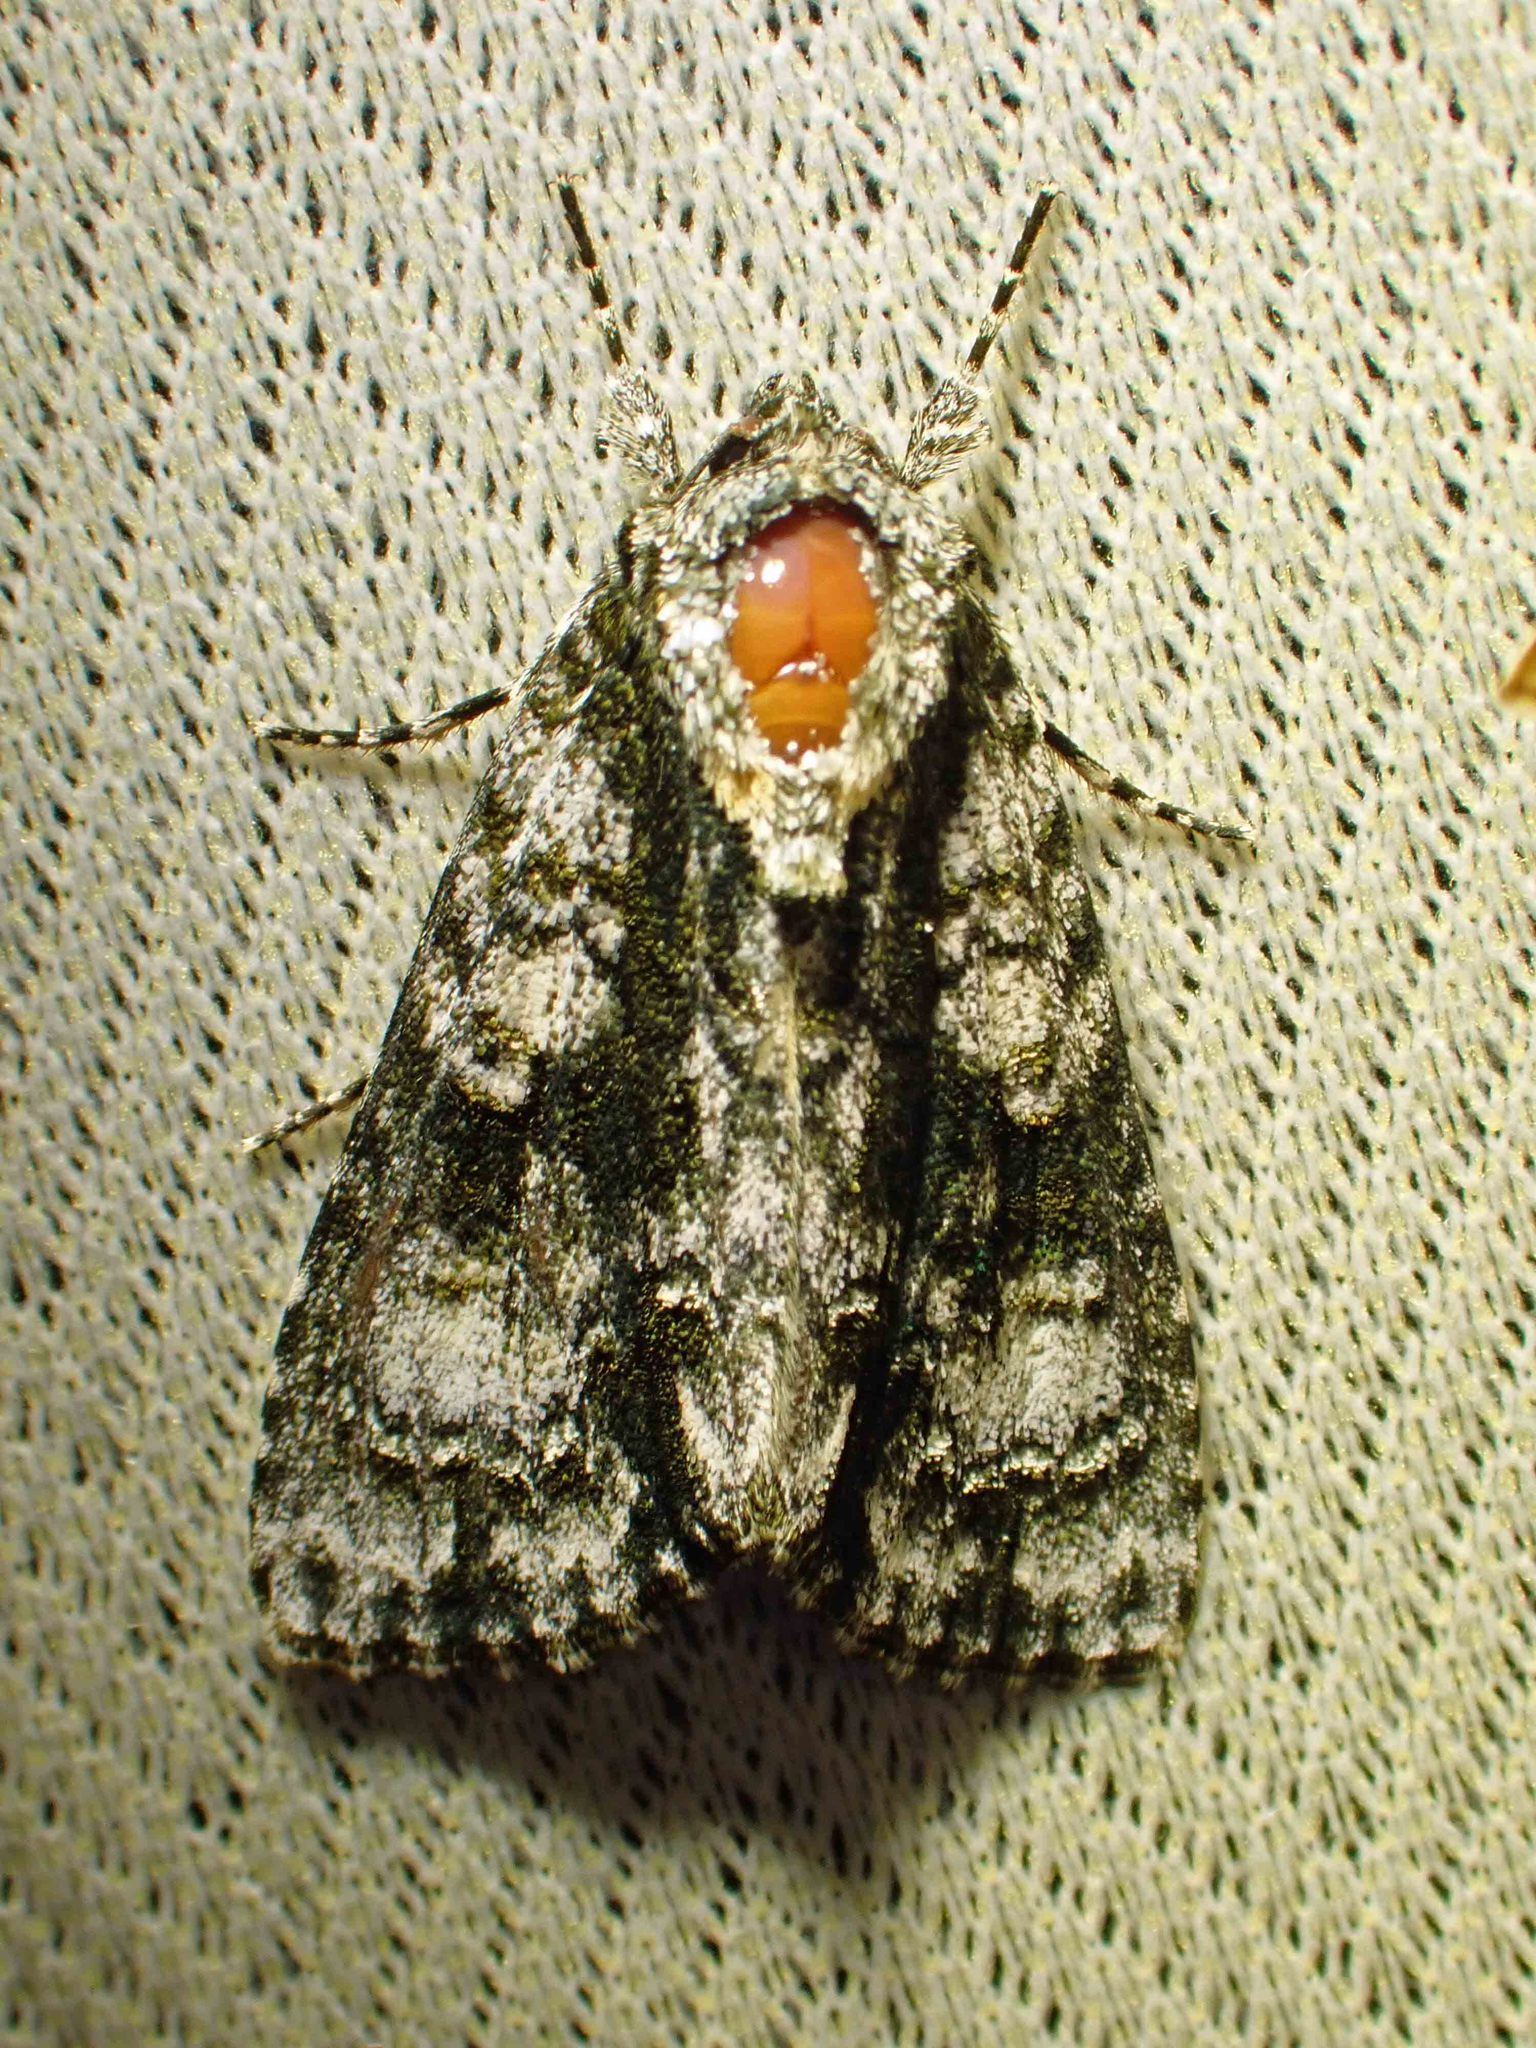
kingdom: Animalia
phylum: Arthropoda
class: Insecta
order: Lepidoptera
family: Noctuidae
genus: Acronicta
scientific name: Acronicta superans
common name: Splendid dagger
